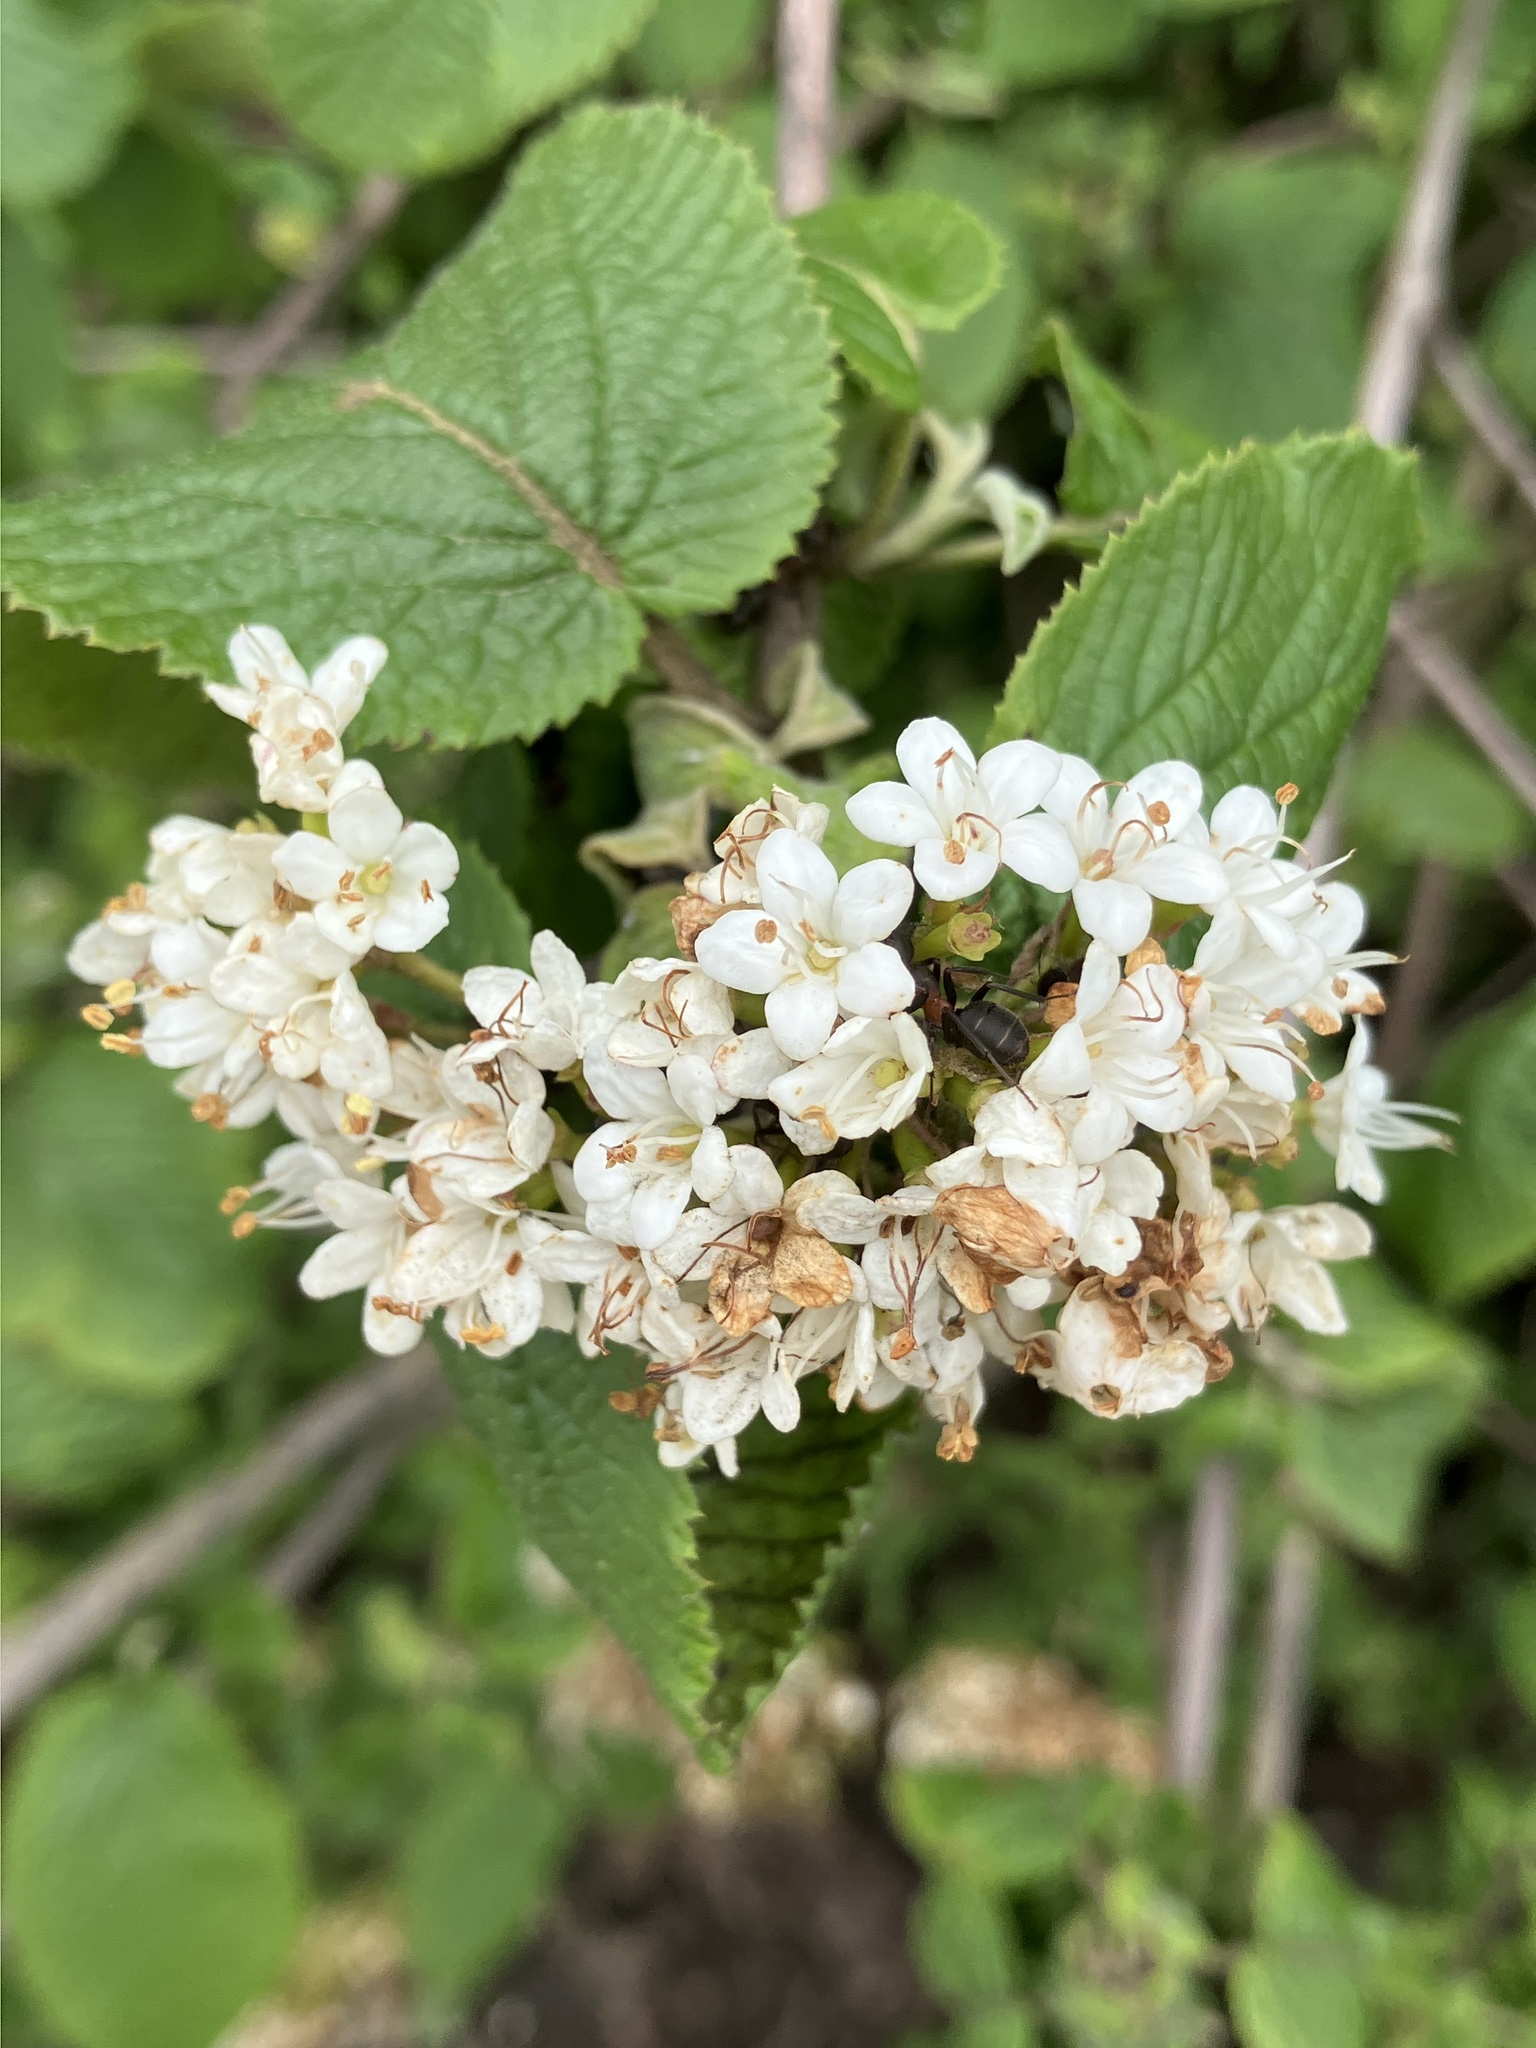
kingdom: Plantae
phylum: Tracheophyta
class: Magnoliopsida
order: Dipsacales
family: Viburnaceae
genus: Viburnum
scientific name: Viburnum lantana
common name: Wayfaring tree
